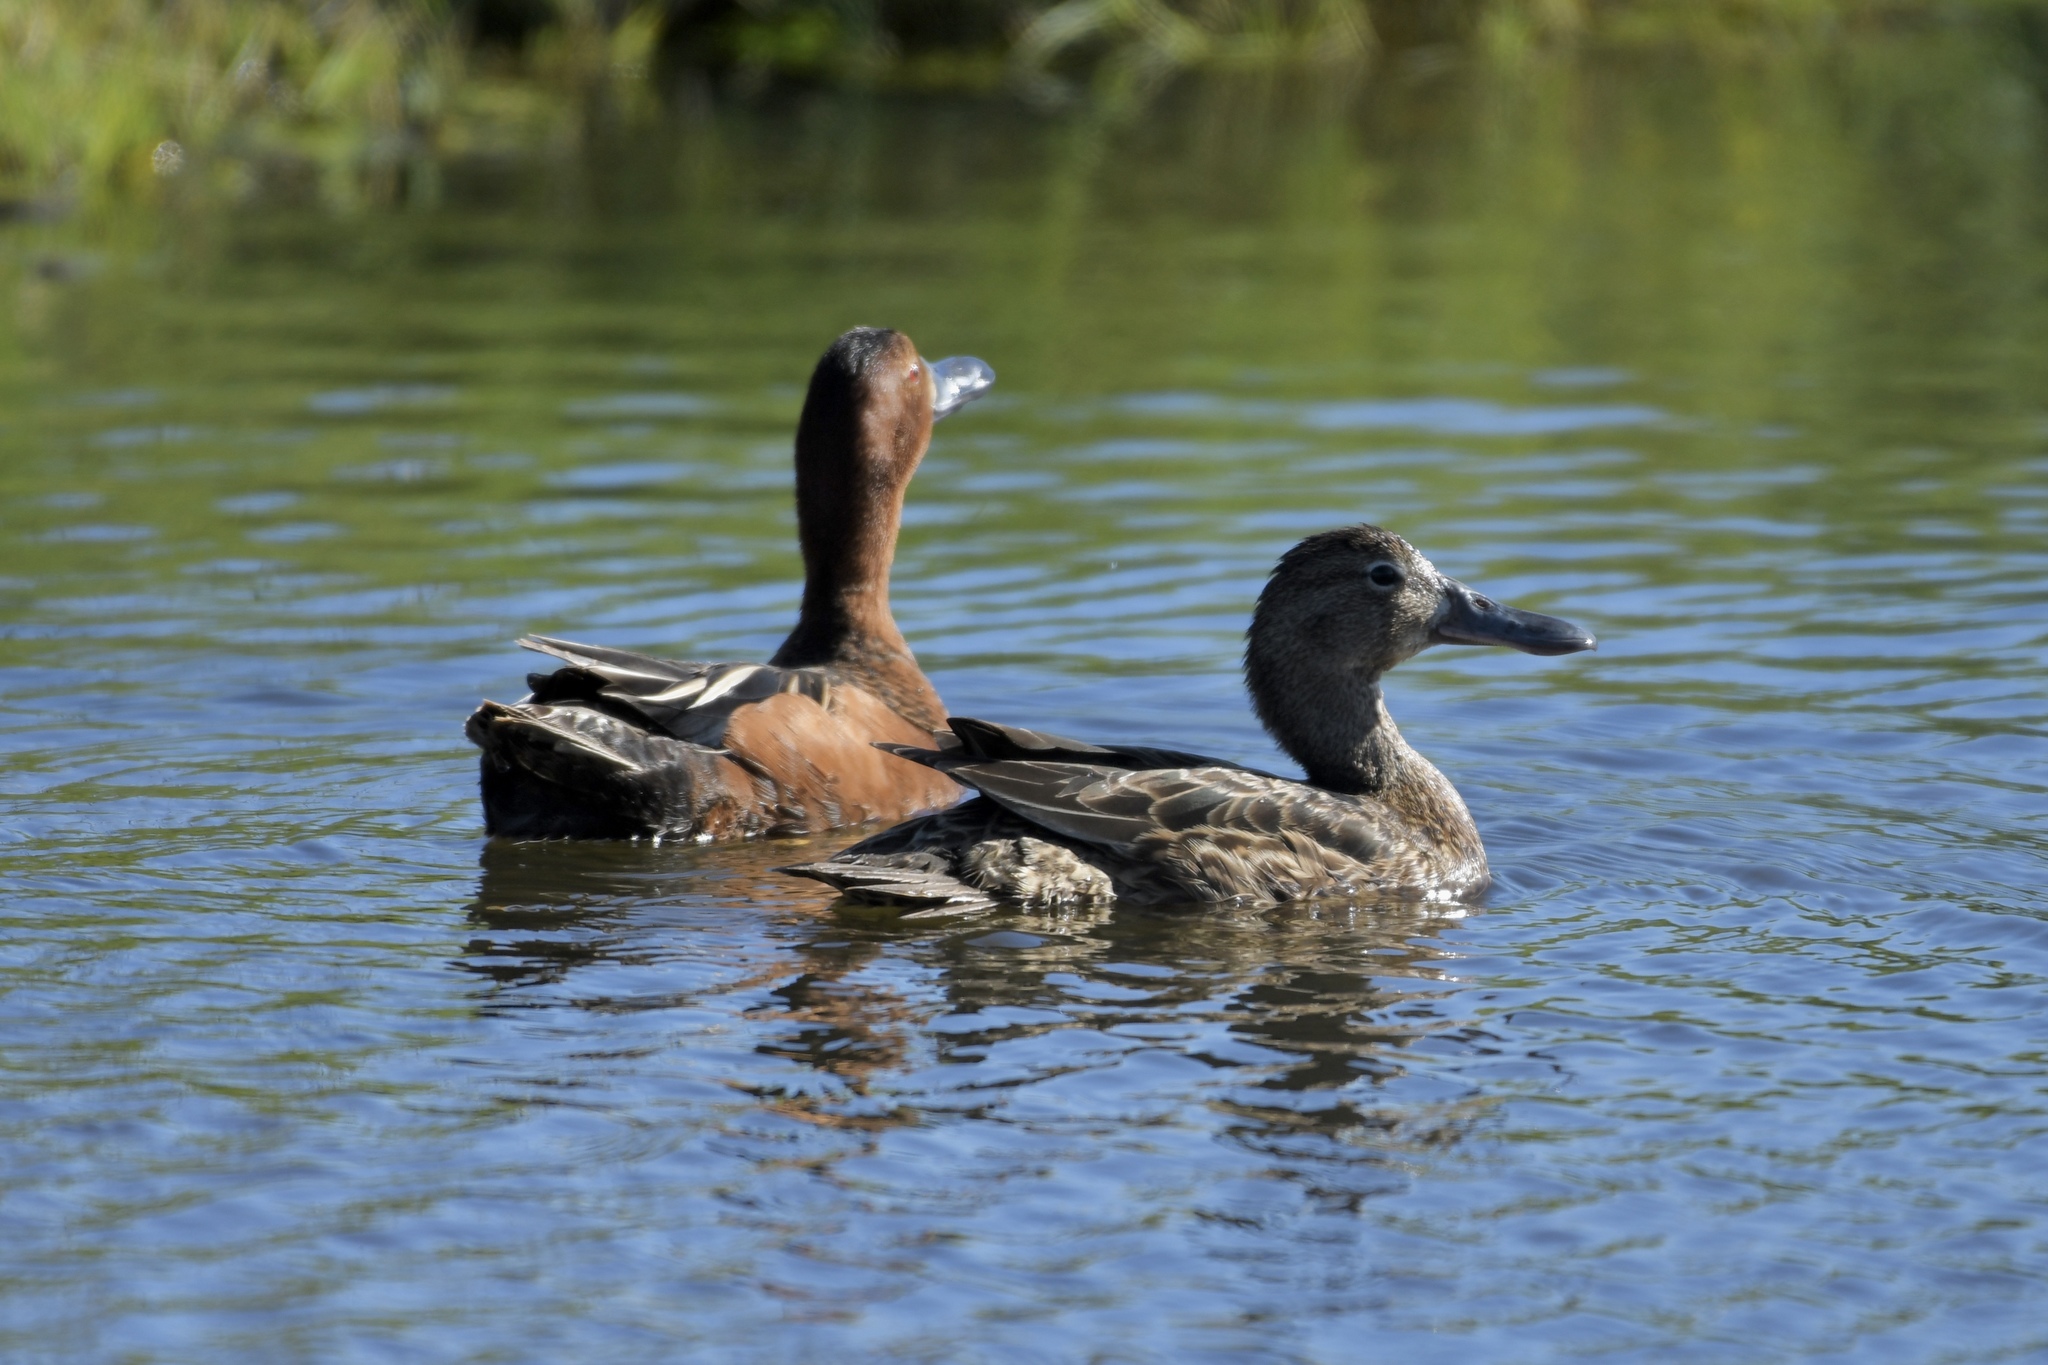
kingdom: Animalia
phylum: Chordata
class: Aves
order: Anseriformes
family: Anatidae
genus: Spatula
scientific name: Spatula cyanoptera
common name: Cinnamon teal
